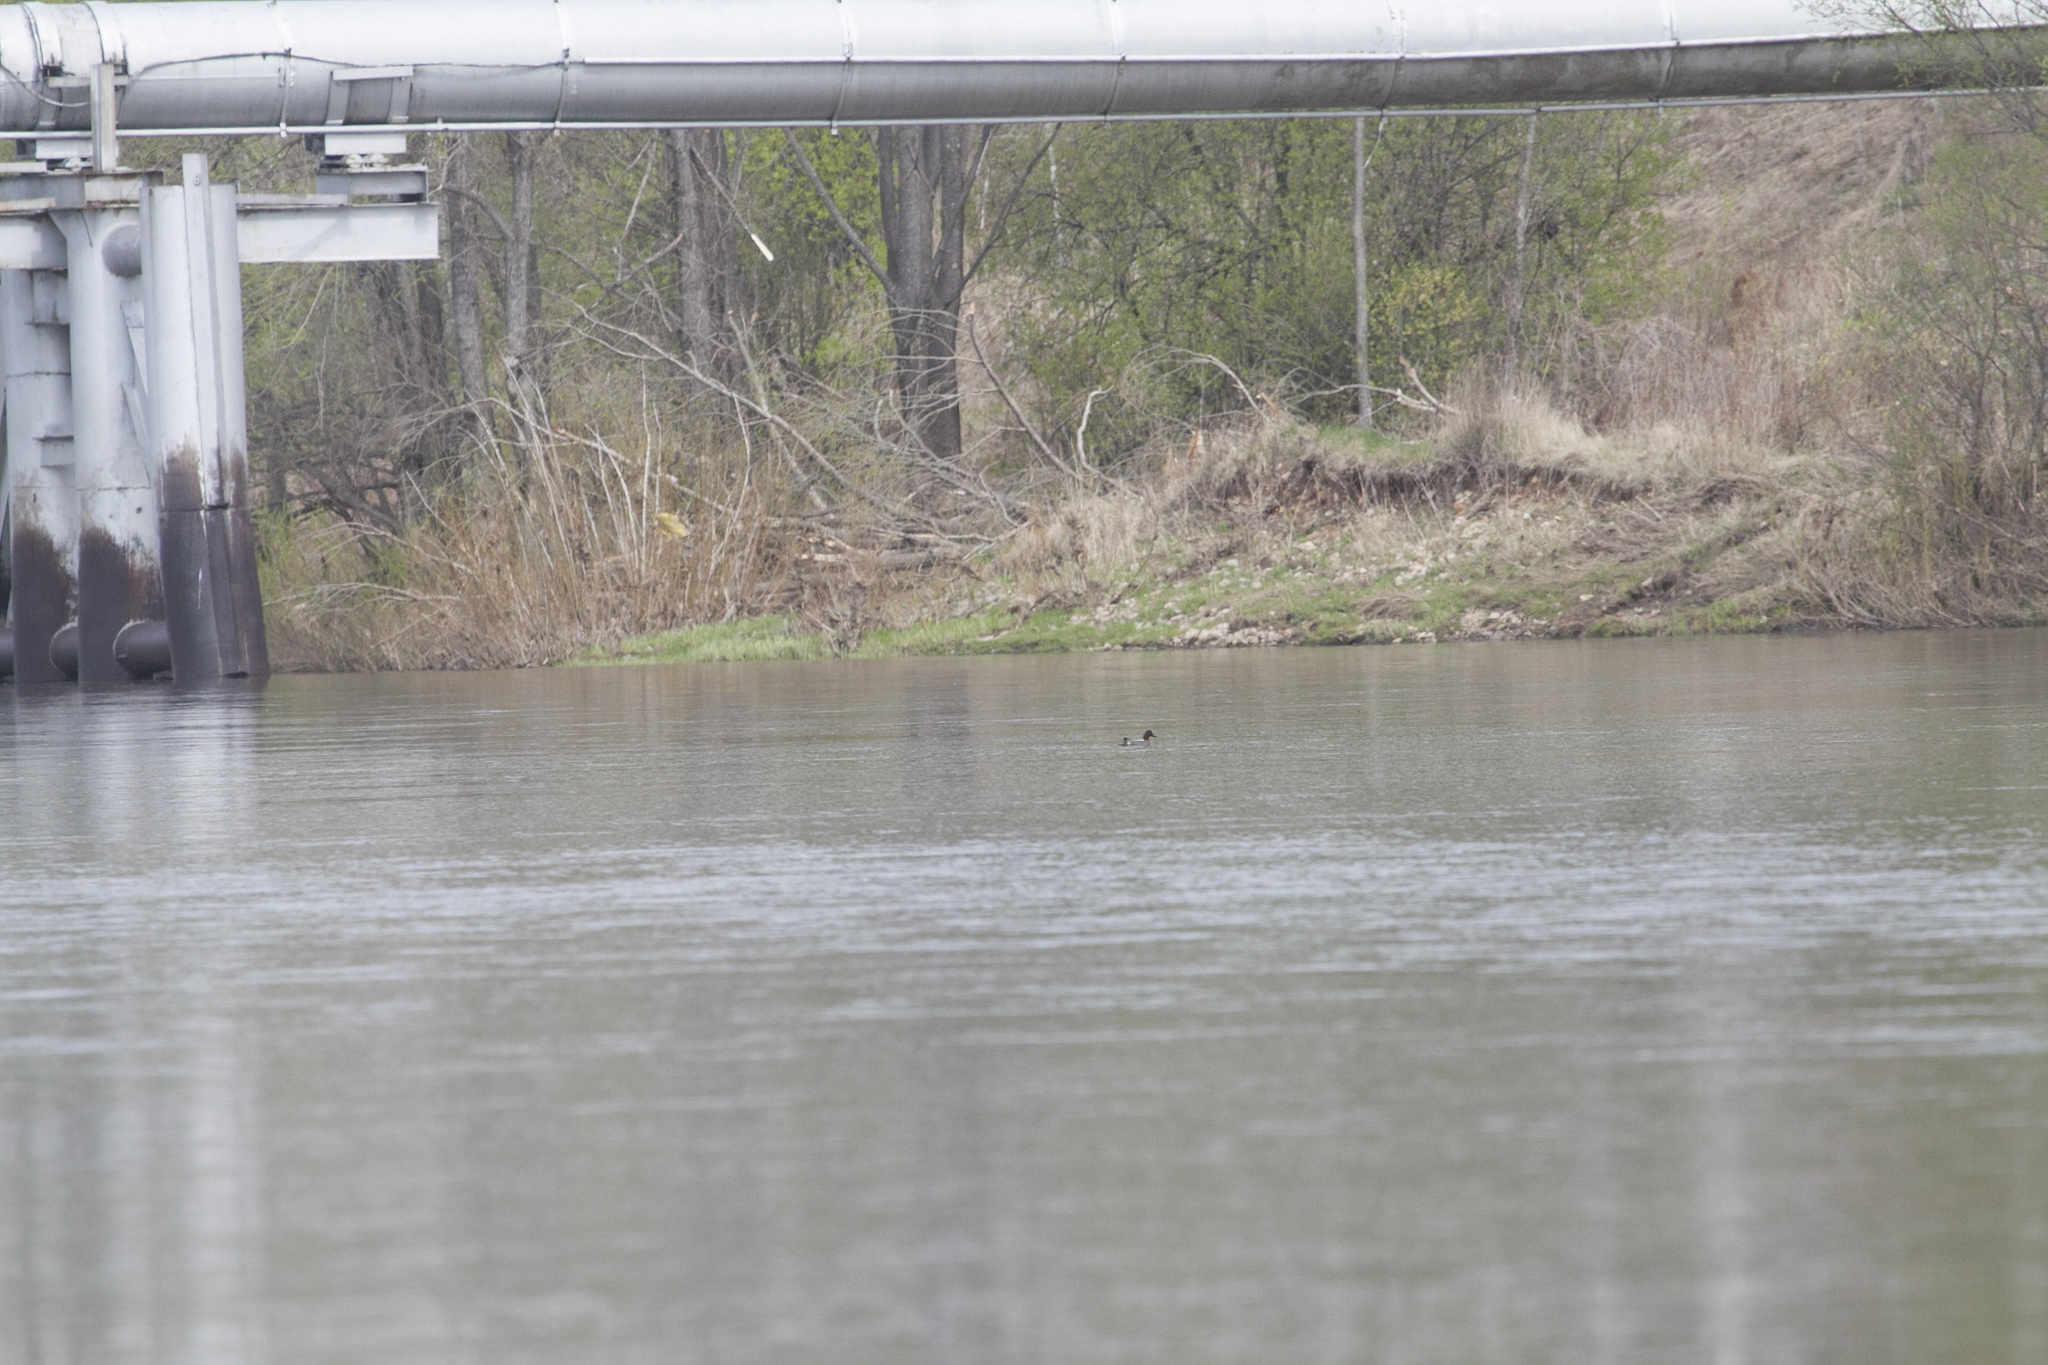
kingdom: Animalia
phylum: Chordata
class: Aves
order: Anseriformes
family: Anatidae
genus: Anas
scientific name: Anas crecca
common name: Eurasian teal
